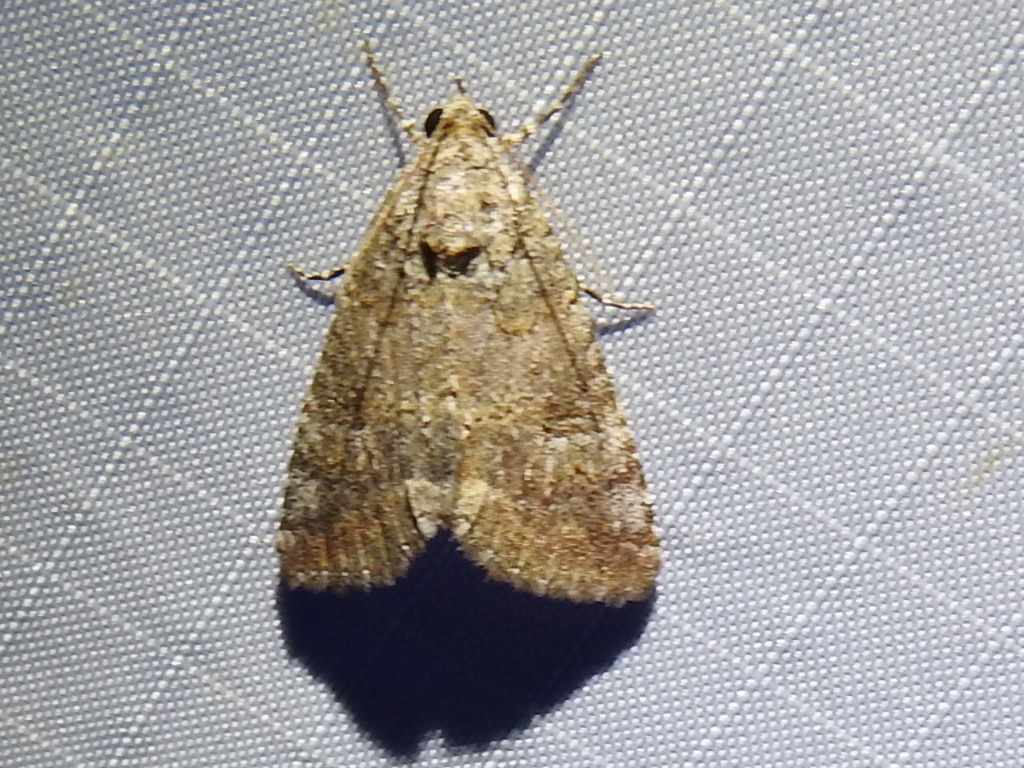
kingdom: Animalia
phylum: Arthropoda
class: Insecta
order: Lepidoptera
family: Erebidae
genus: Eubolina
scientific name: Eubolina impartialis
